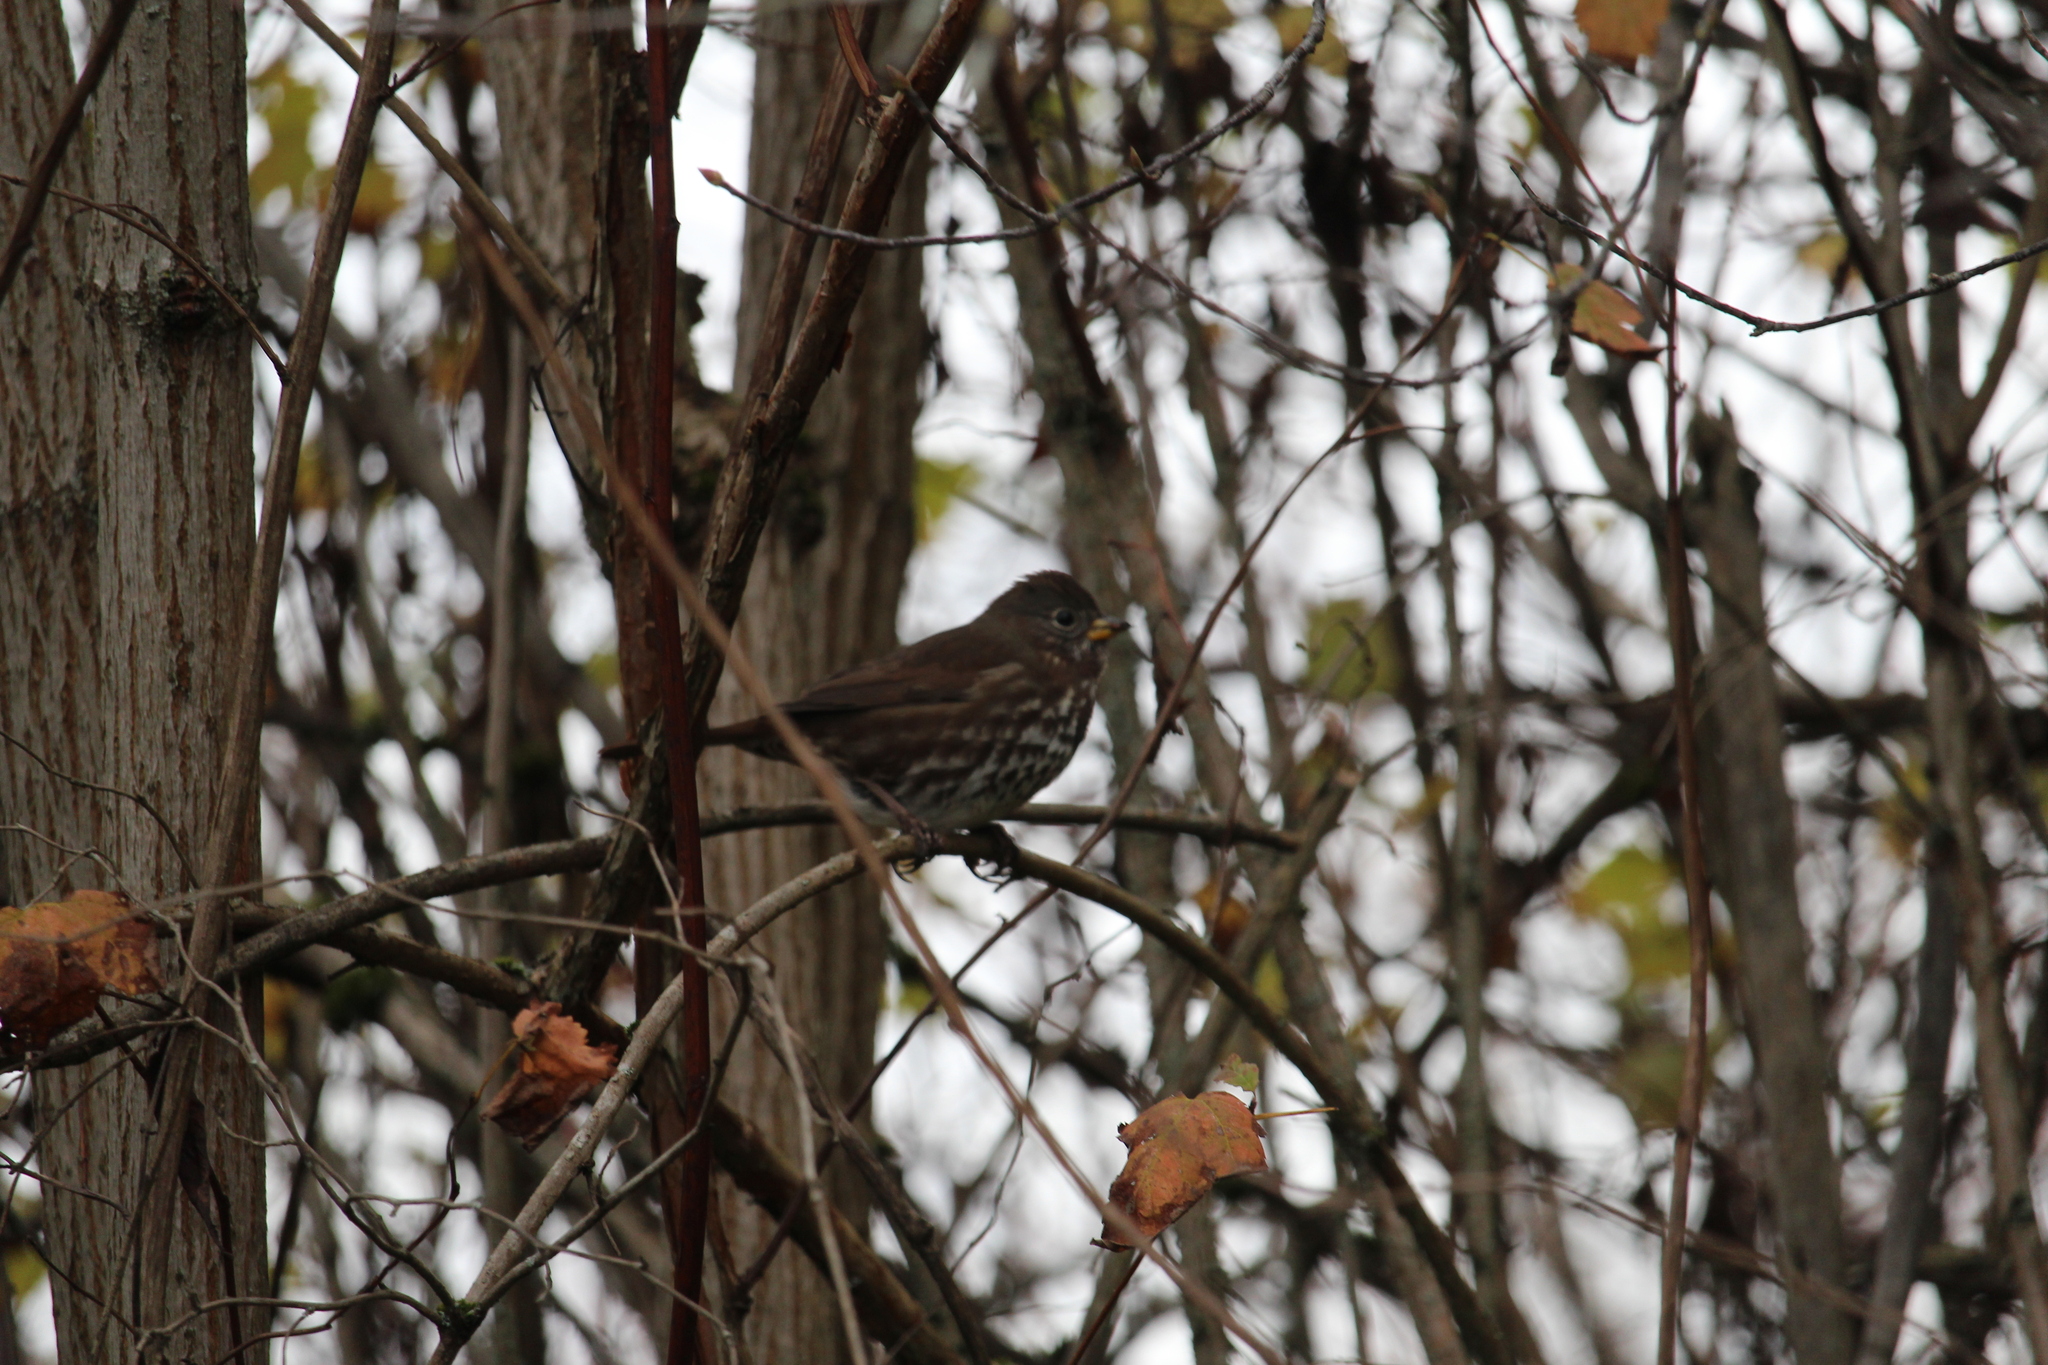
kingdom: Animalia
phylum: Chordata
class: Aves
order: Passeriformes
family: Passerellidae
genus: Passerella
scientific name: Passerella iliaca
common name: Fox sparrow
